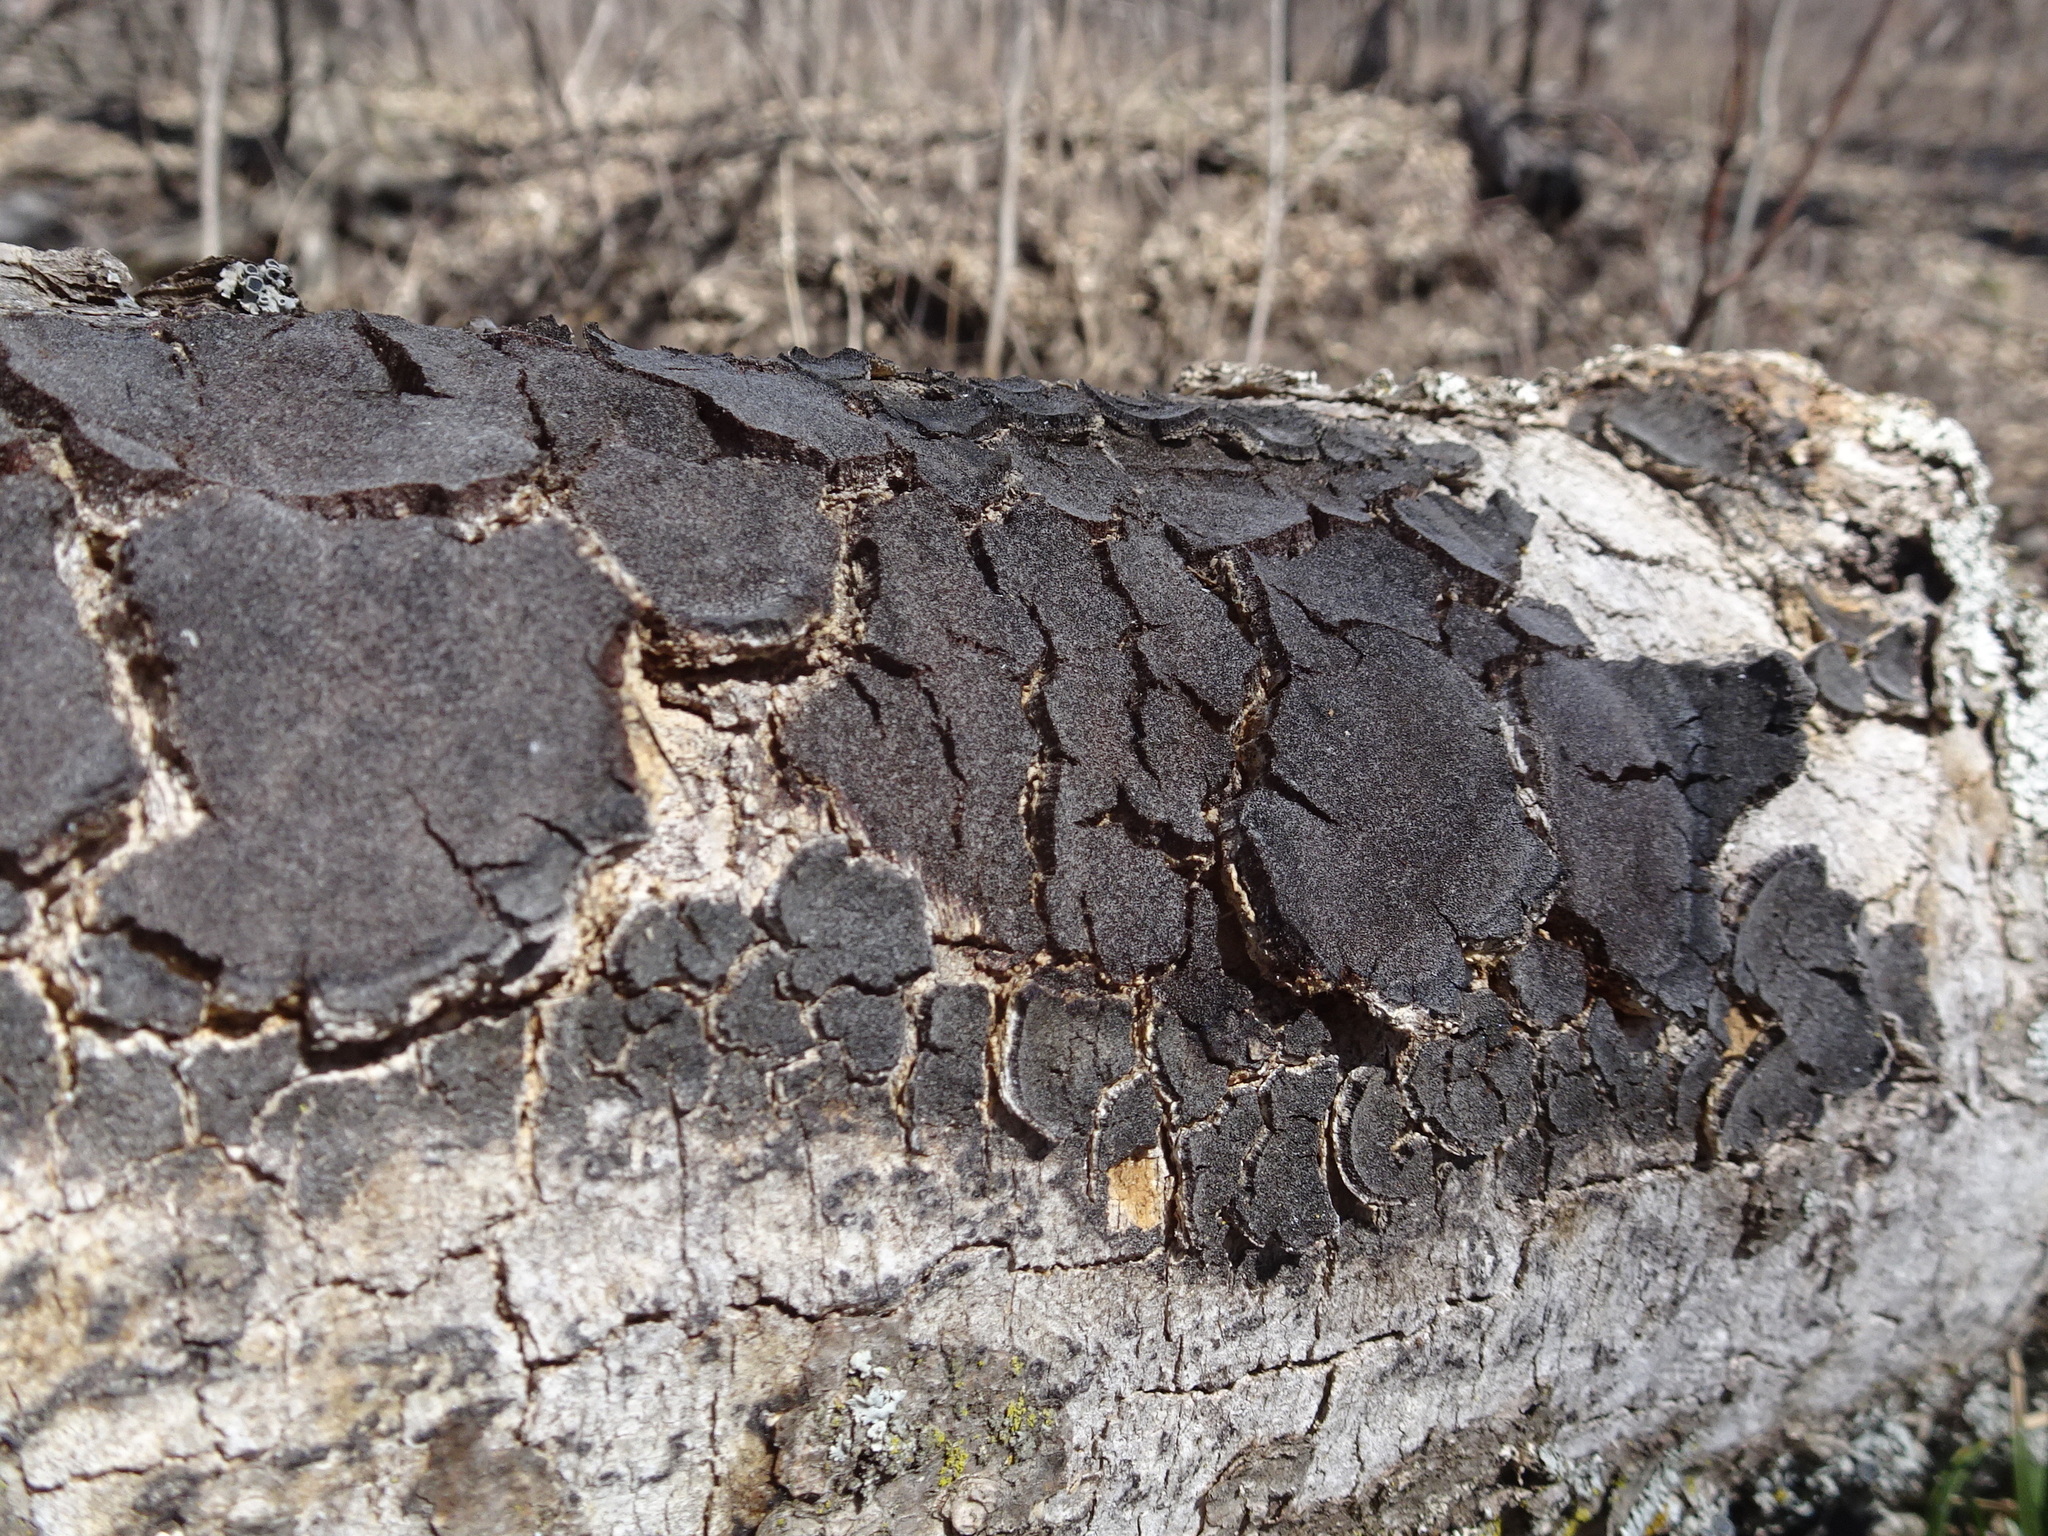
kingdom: Fungi
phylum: Ascomycota
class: Sordariomycetes
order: Xylariales
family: Diatrypaceae
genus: Diatrype
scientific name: Diatrype stigma
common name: Common tarcrust
